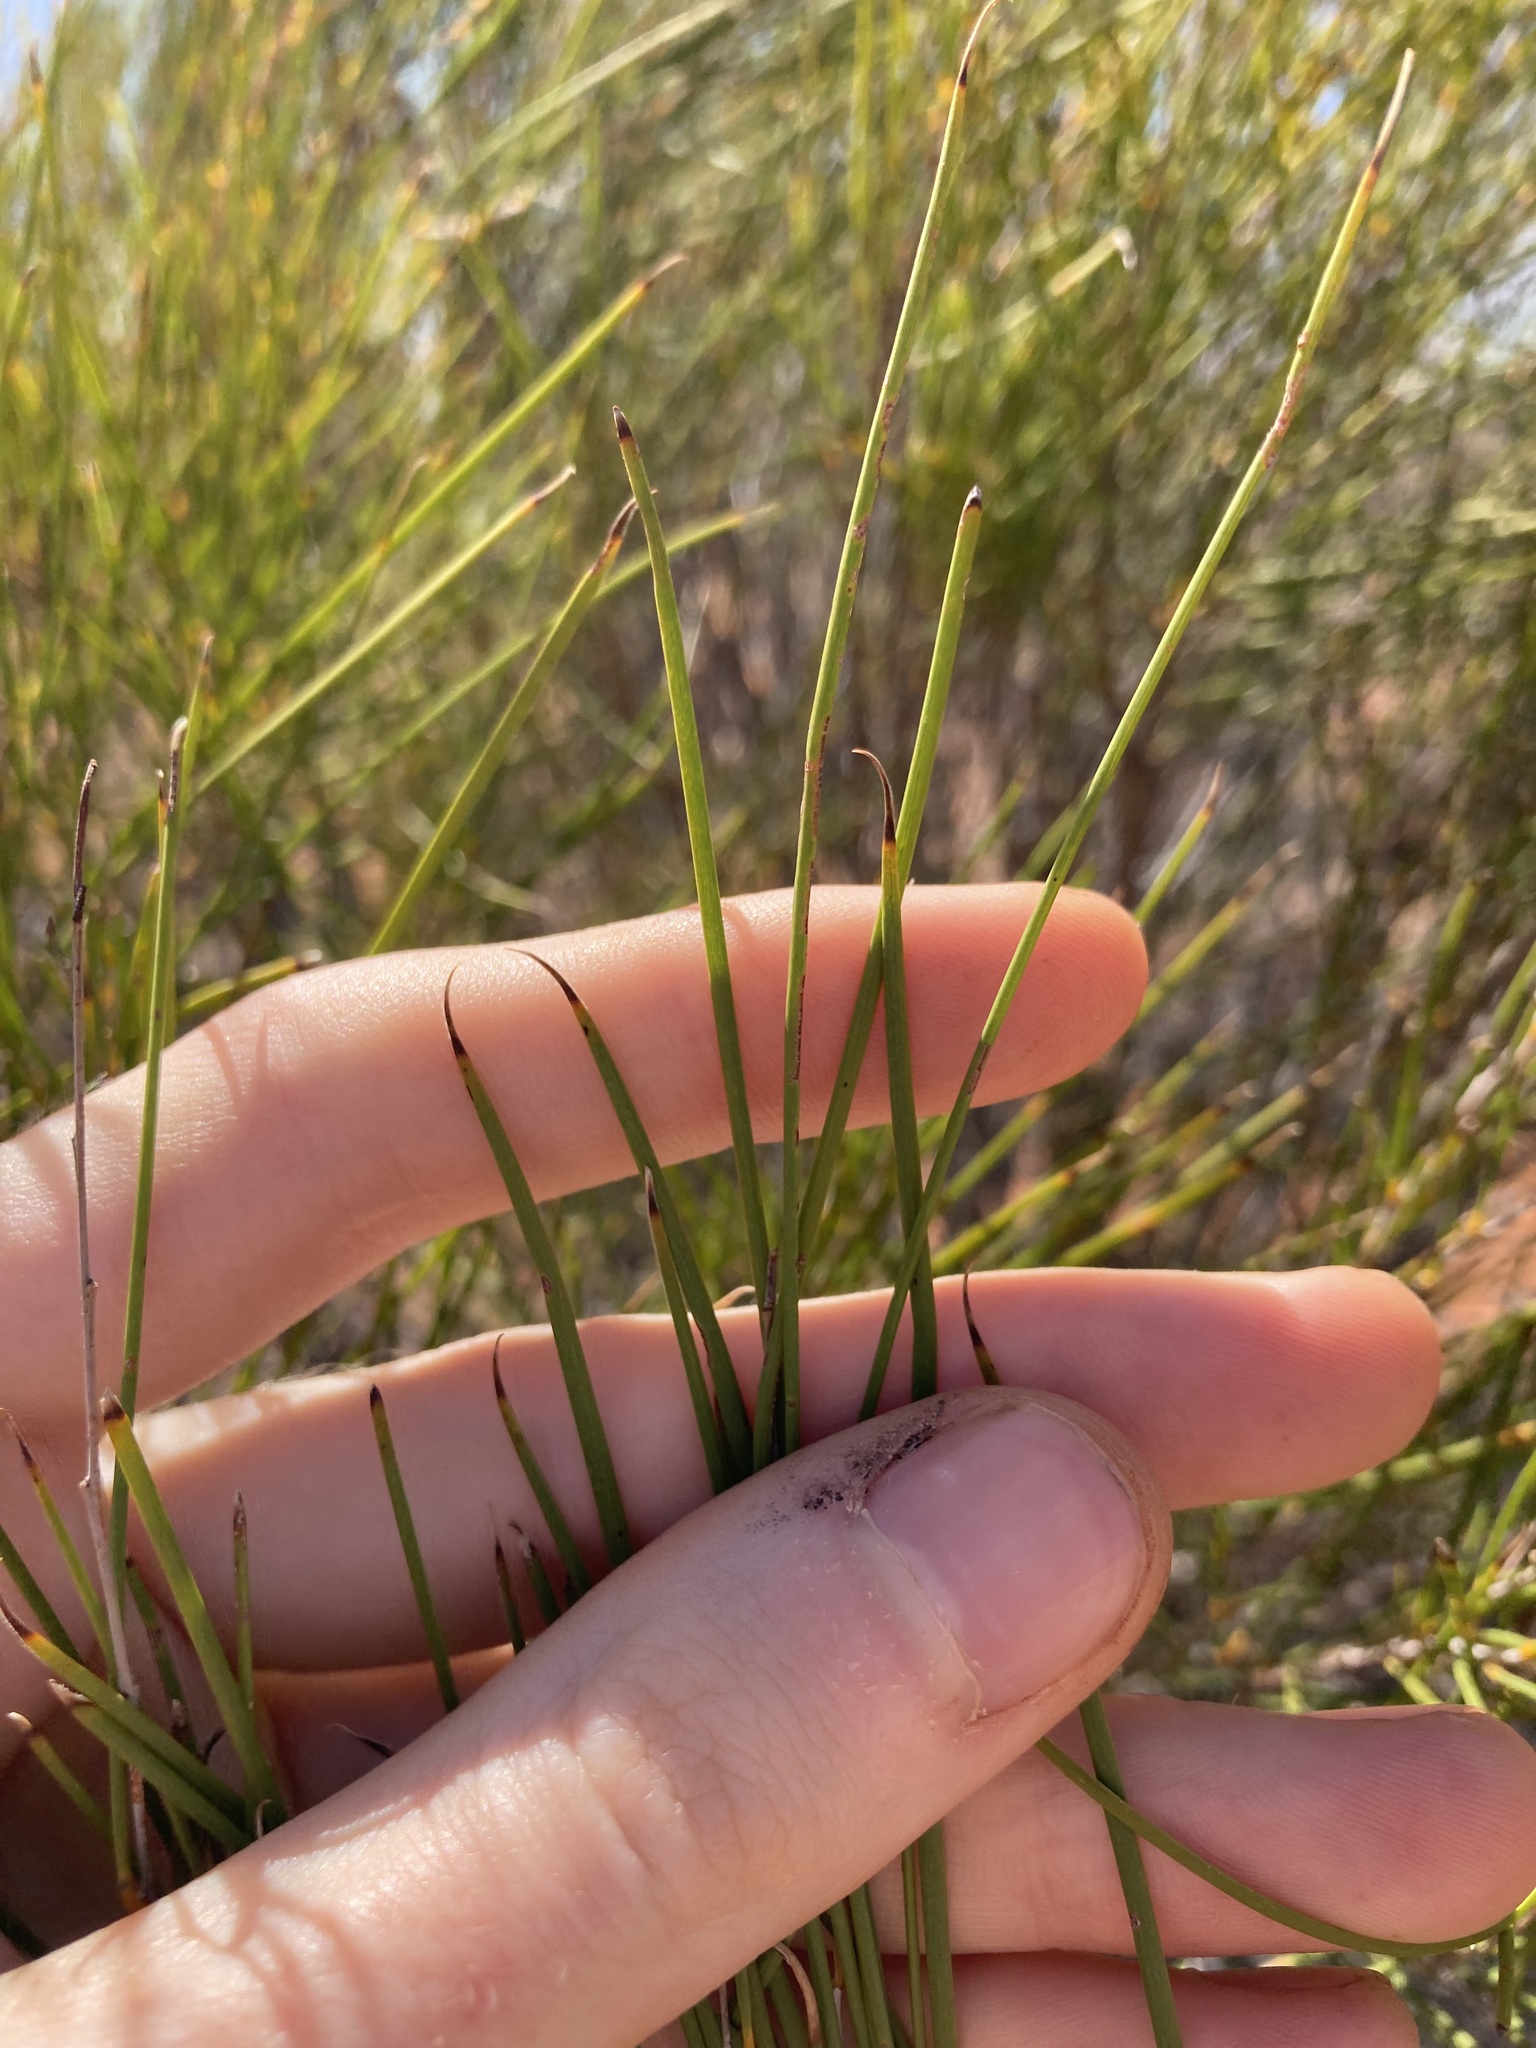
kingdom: Plantae
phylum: Tracheophyta
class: Magnoliopsida
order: Fabales
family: Fabaceae
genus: Acacia
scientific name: Acacia burkittii
